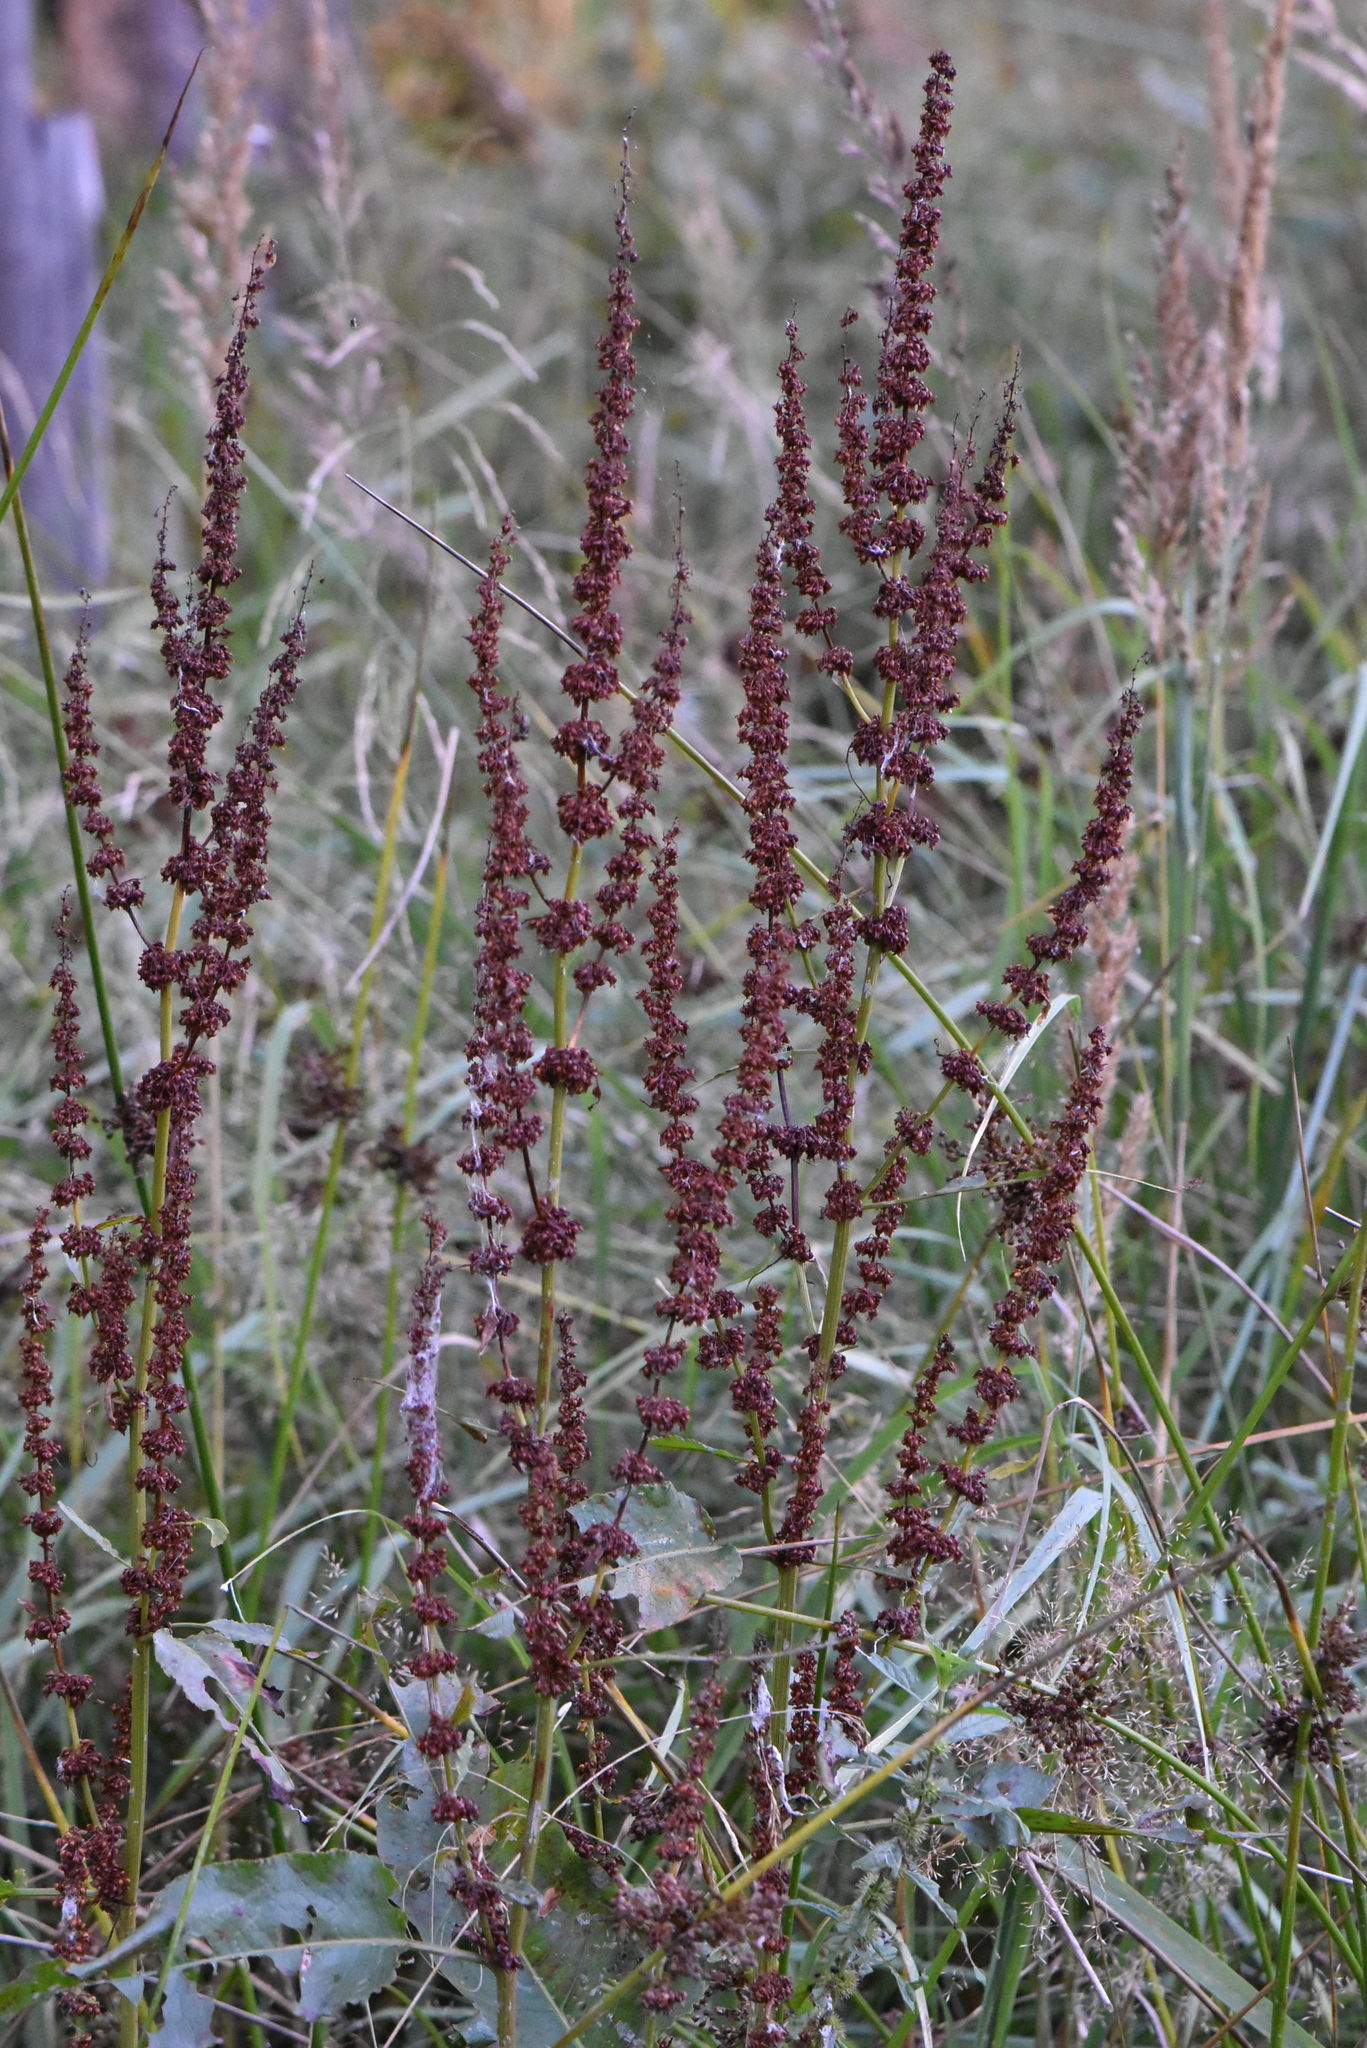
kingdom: Plantae
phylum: Tracheophyta
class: Magnoliopsida
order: Caryophyllales
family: Polygonaceae
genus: Rumex
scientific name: Rumex obtusifolius
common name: Bitter dock
